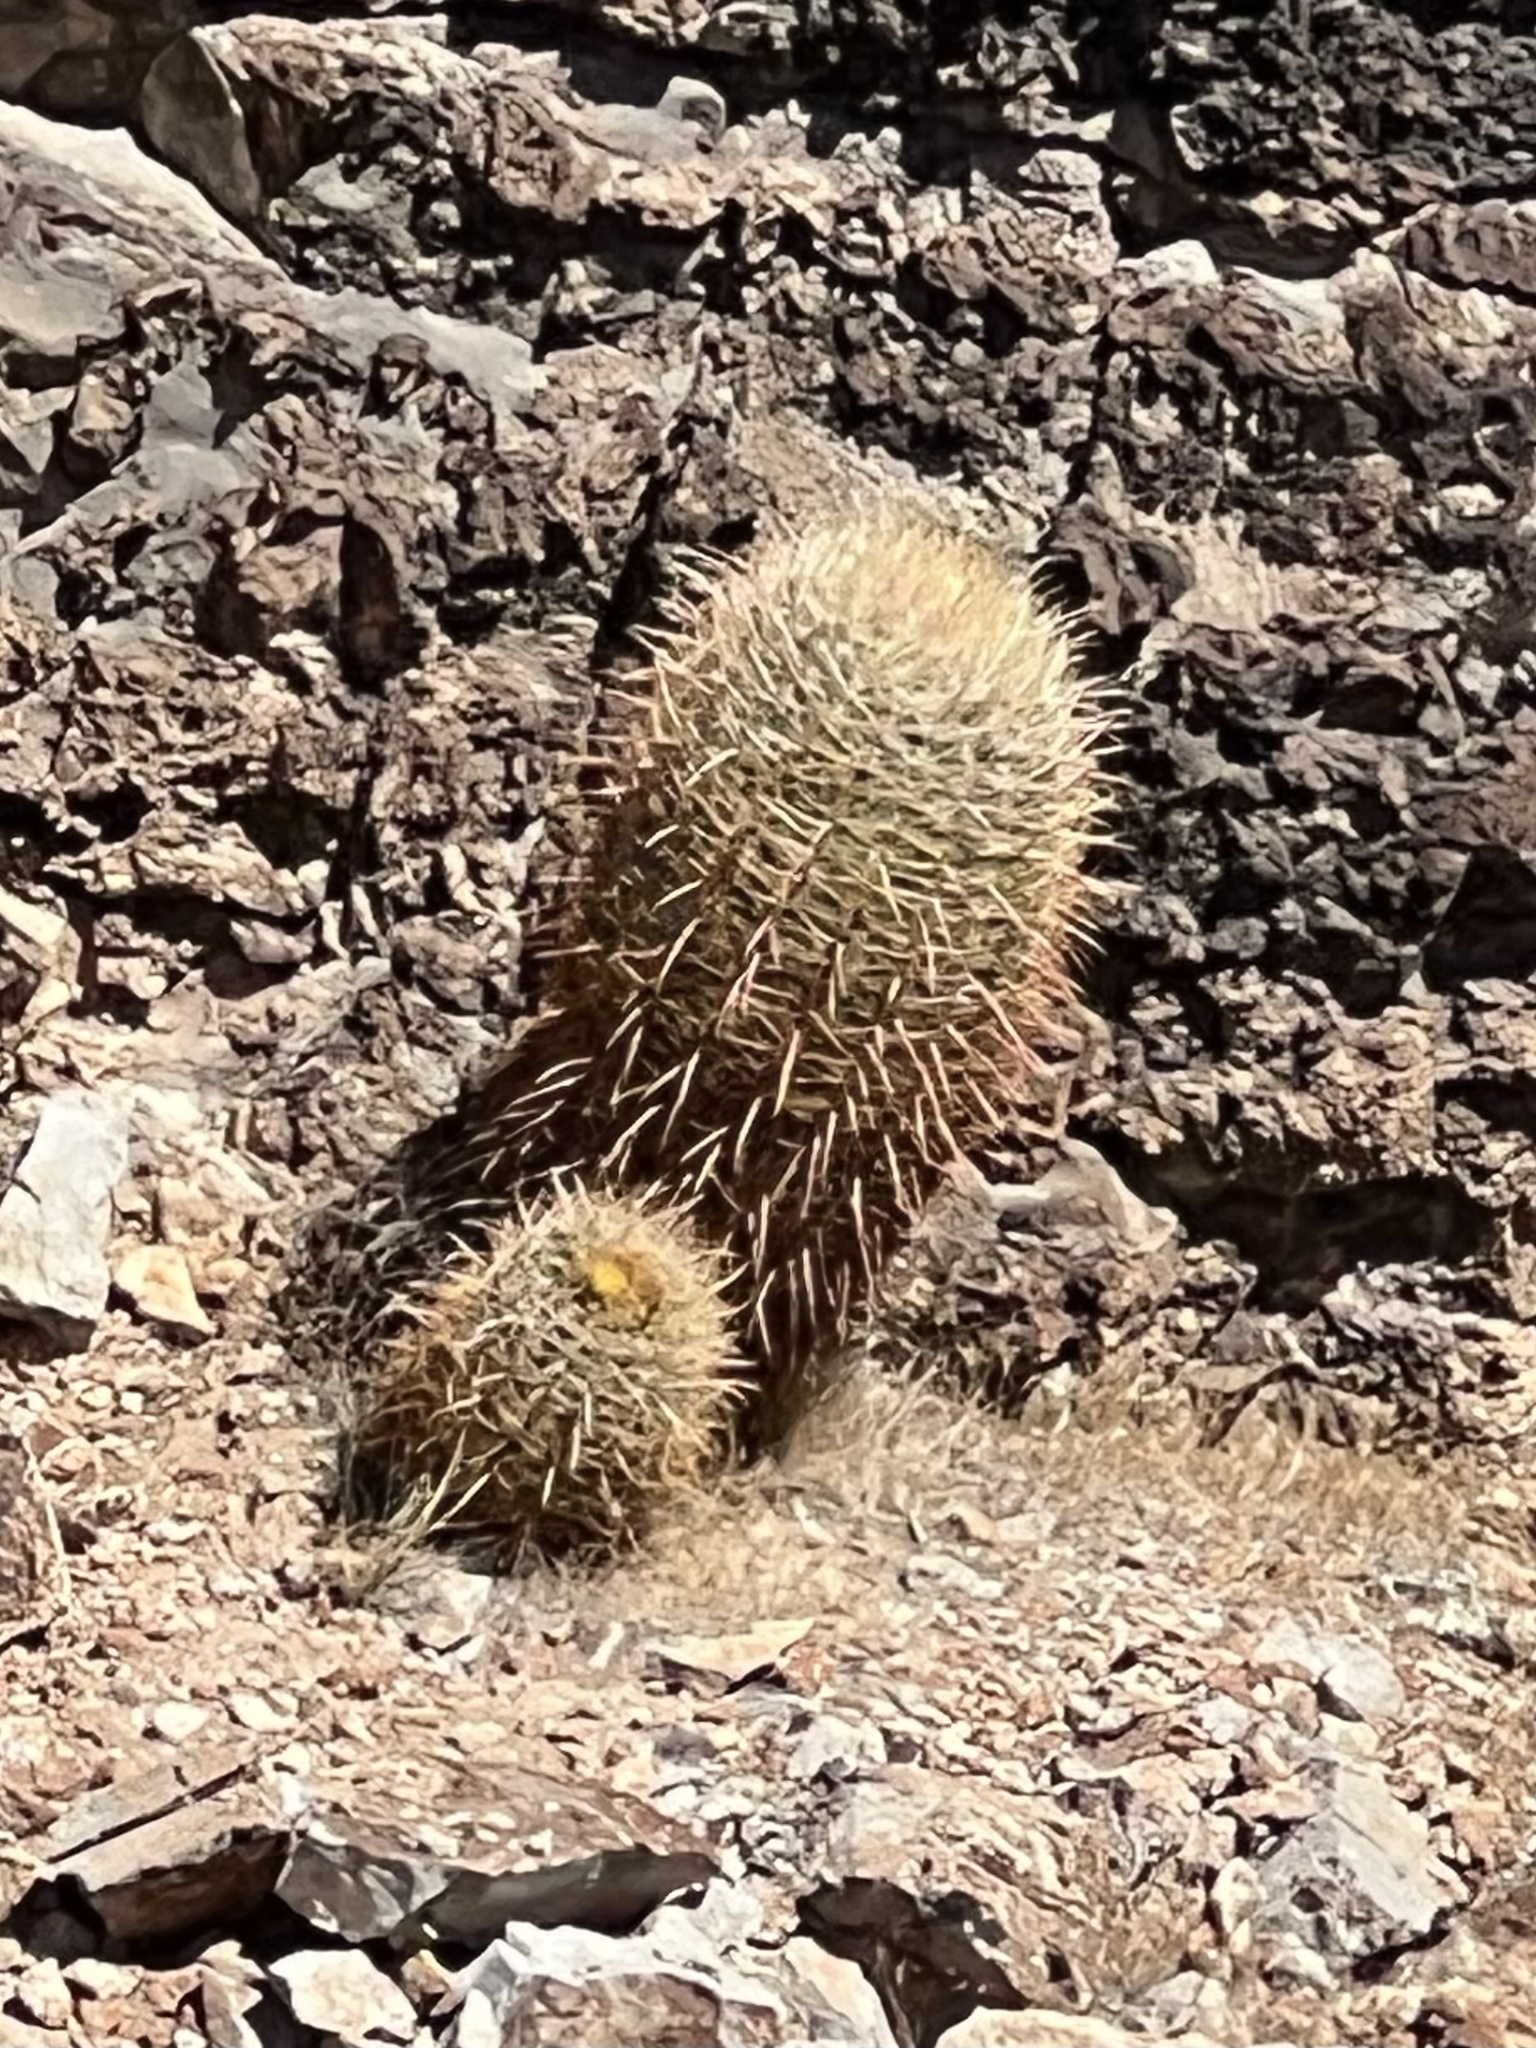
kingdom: Plantae
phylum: Tracheophyta
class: Magnoliopsida
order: Caryophyllales
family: Cactaceae
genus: Ferocactus
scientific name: Ferocactus cylindraceus
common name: California barrel cactus
